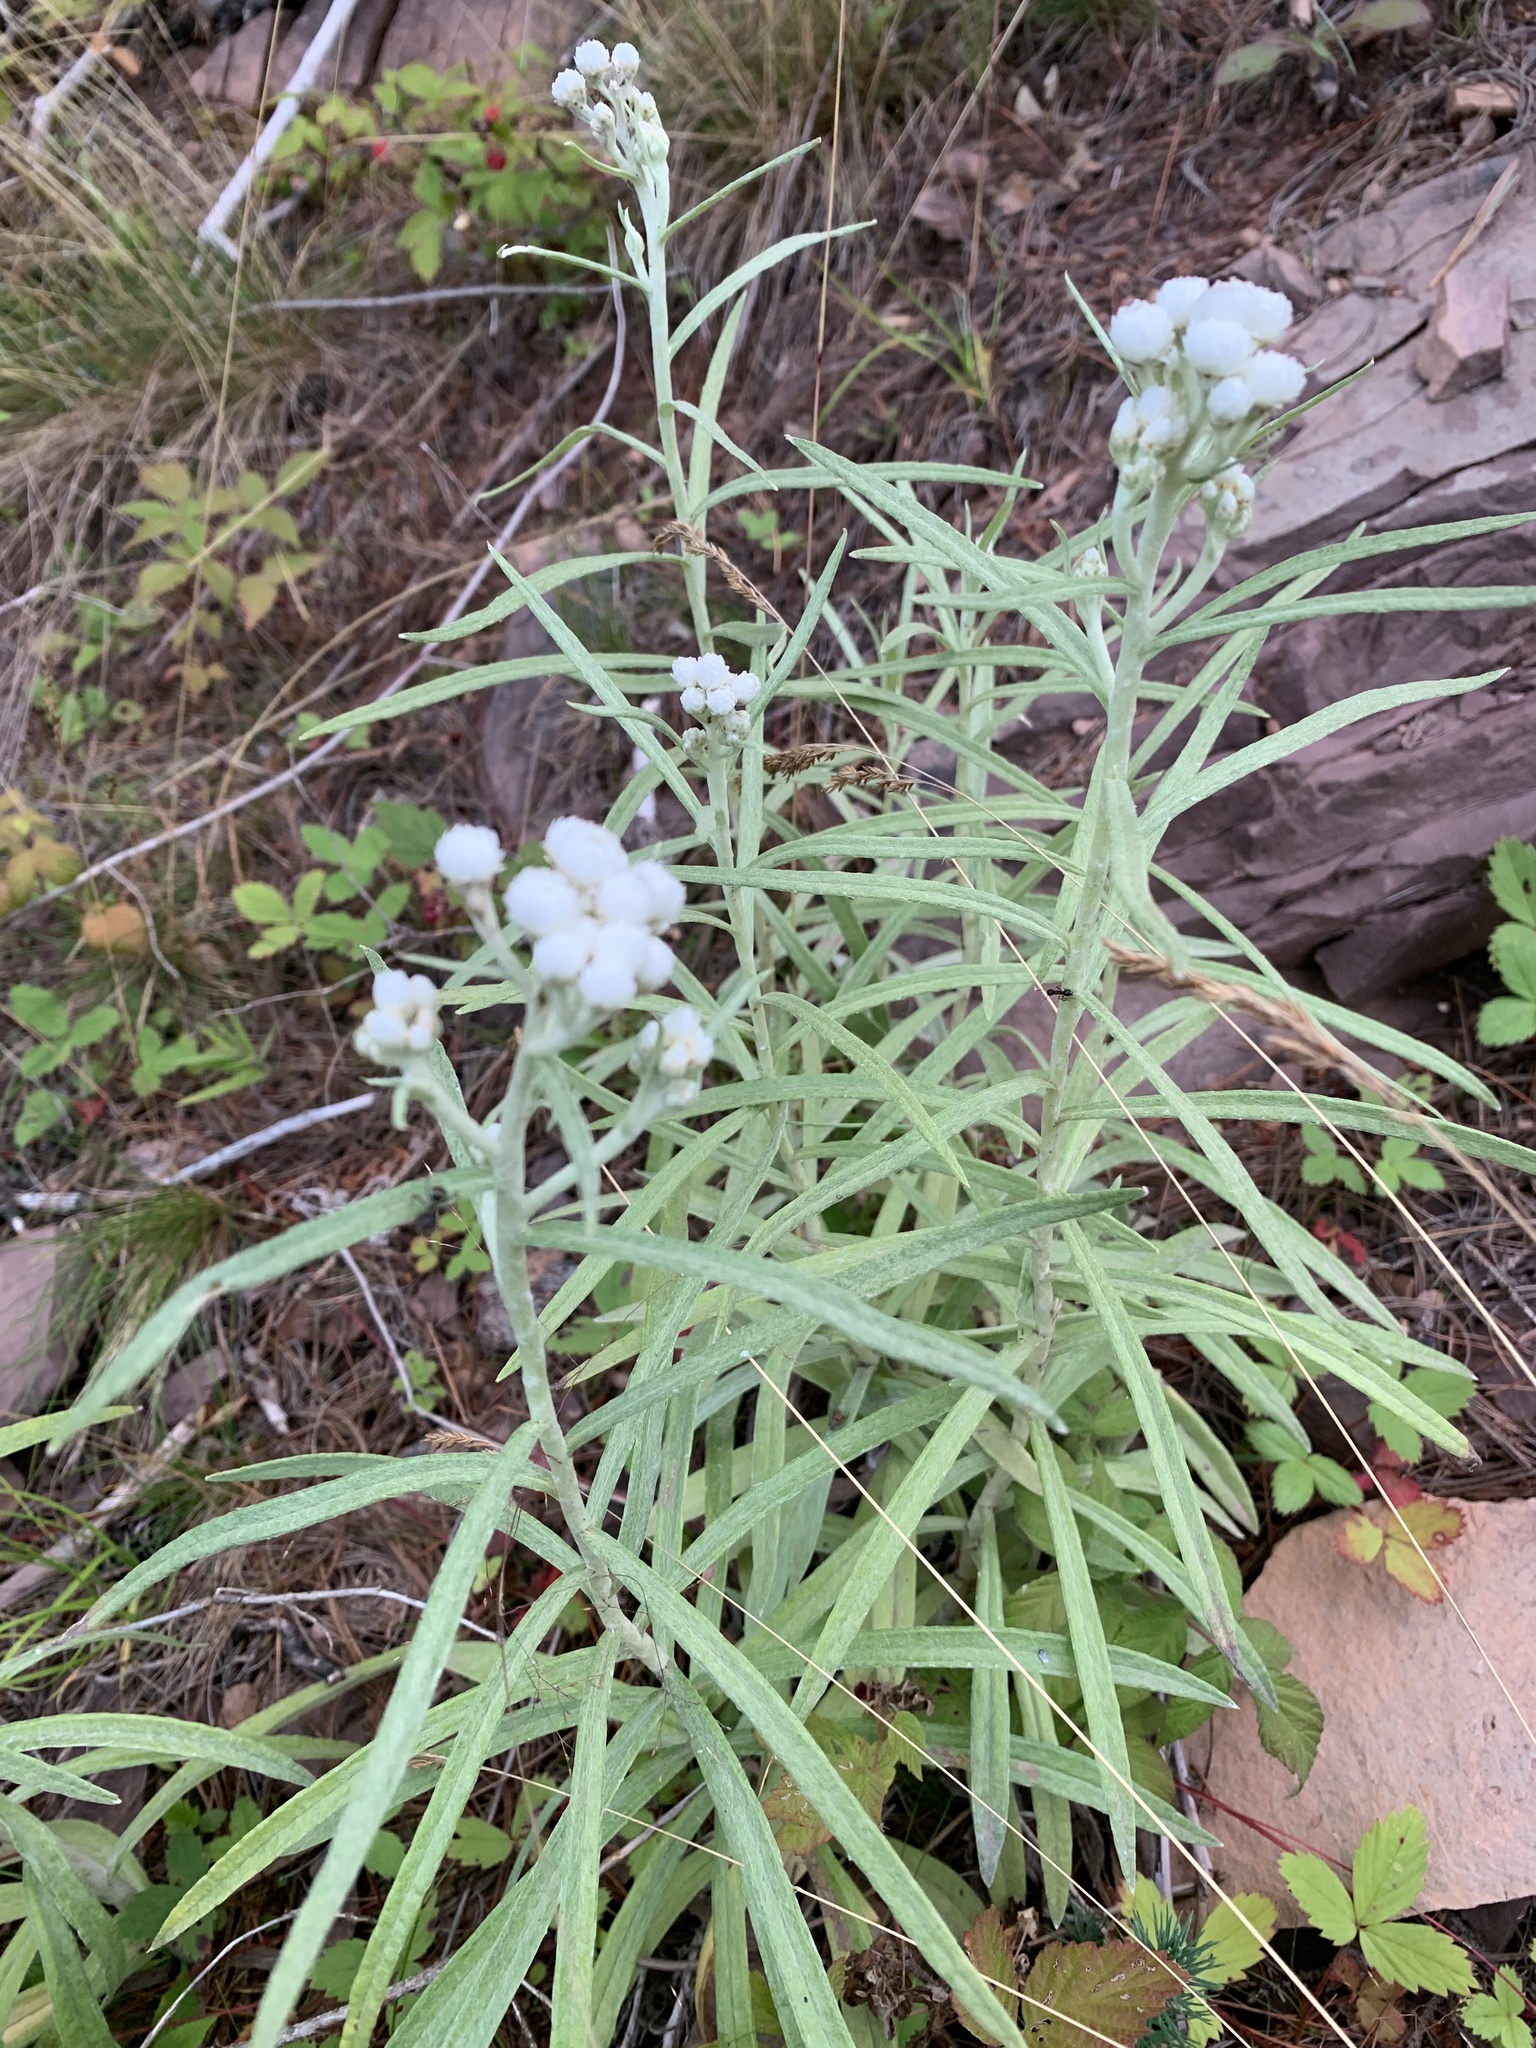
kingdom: Plantae
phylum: Tracheophyta
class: Magnoliopsida
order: Asterales
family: Asteraceae
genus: Anaphalis
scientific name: Anaphalis margaritacea
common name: Pearly everlasting
